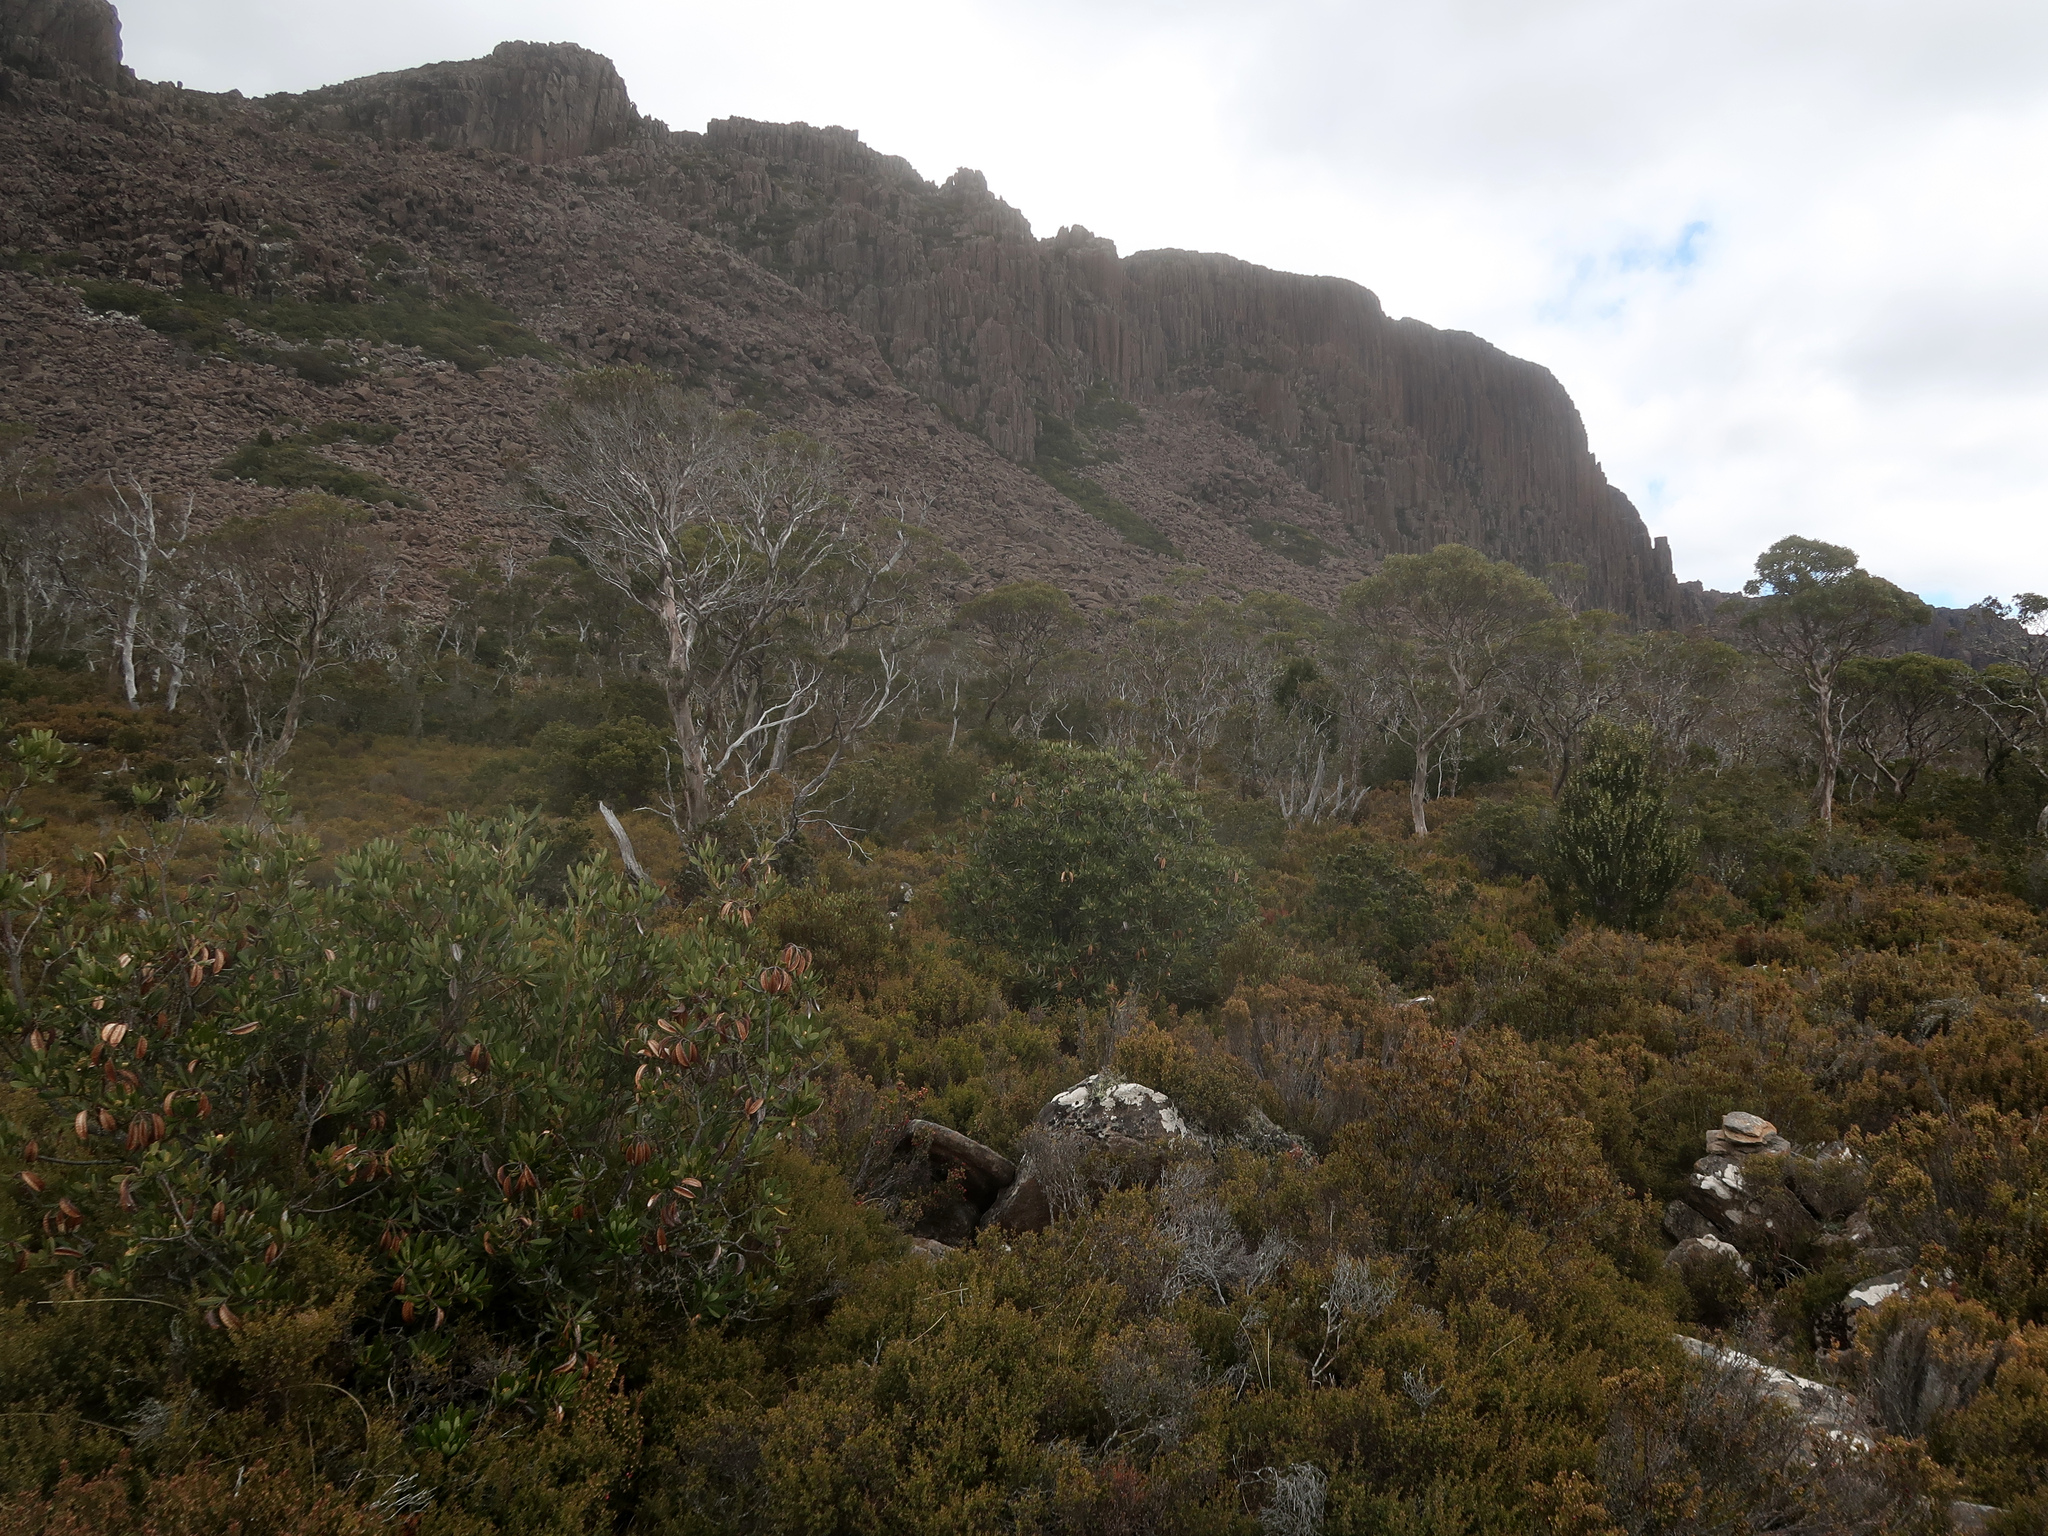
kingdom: Plantae
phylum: Tracheophyta
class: Magnoliopsida
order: Proteales
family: Proteaceae
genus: Telopea
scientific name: Telopea truncata
